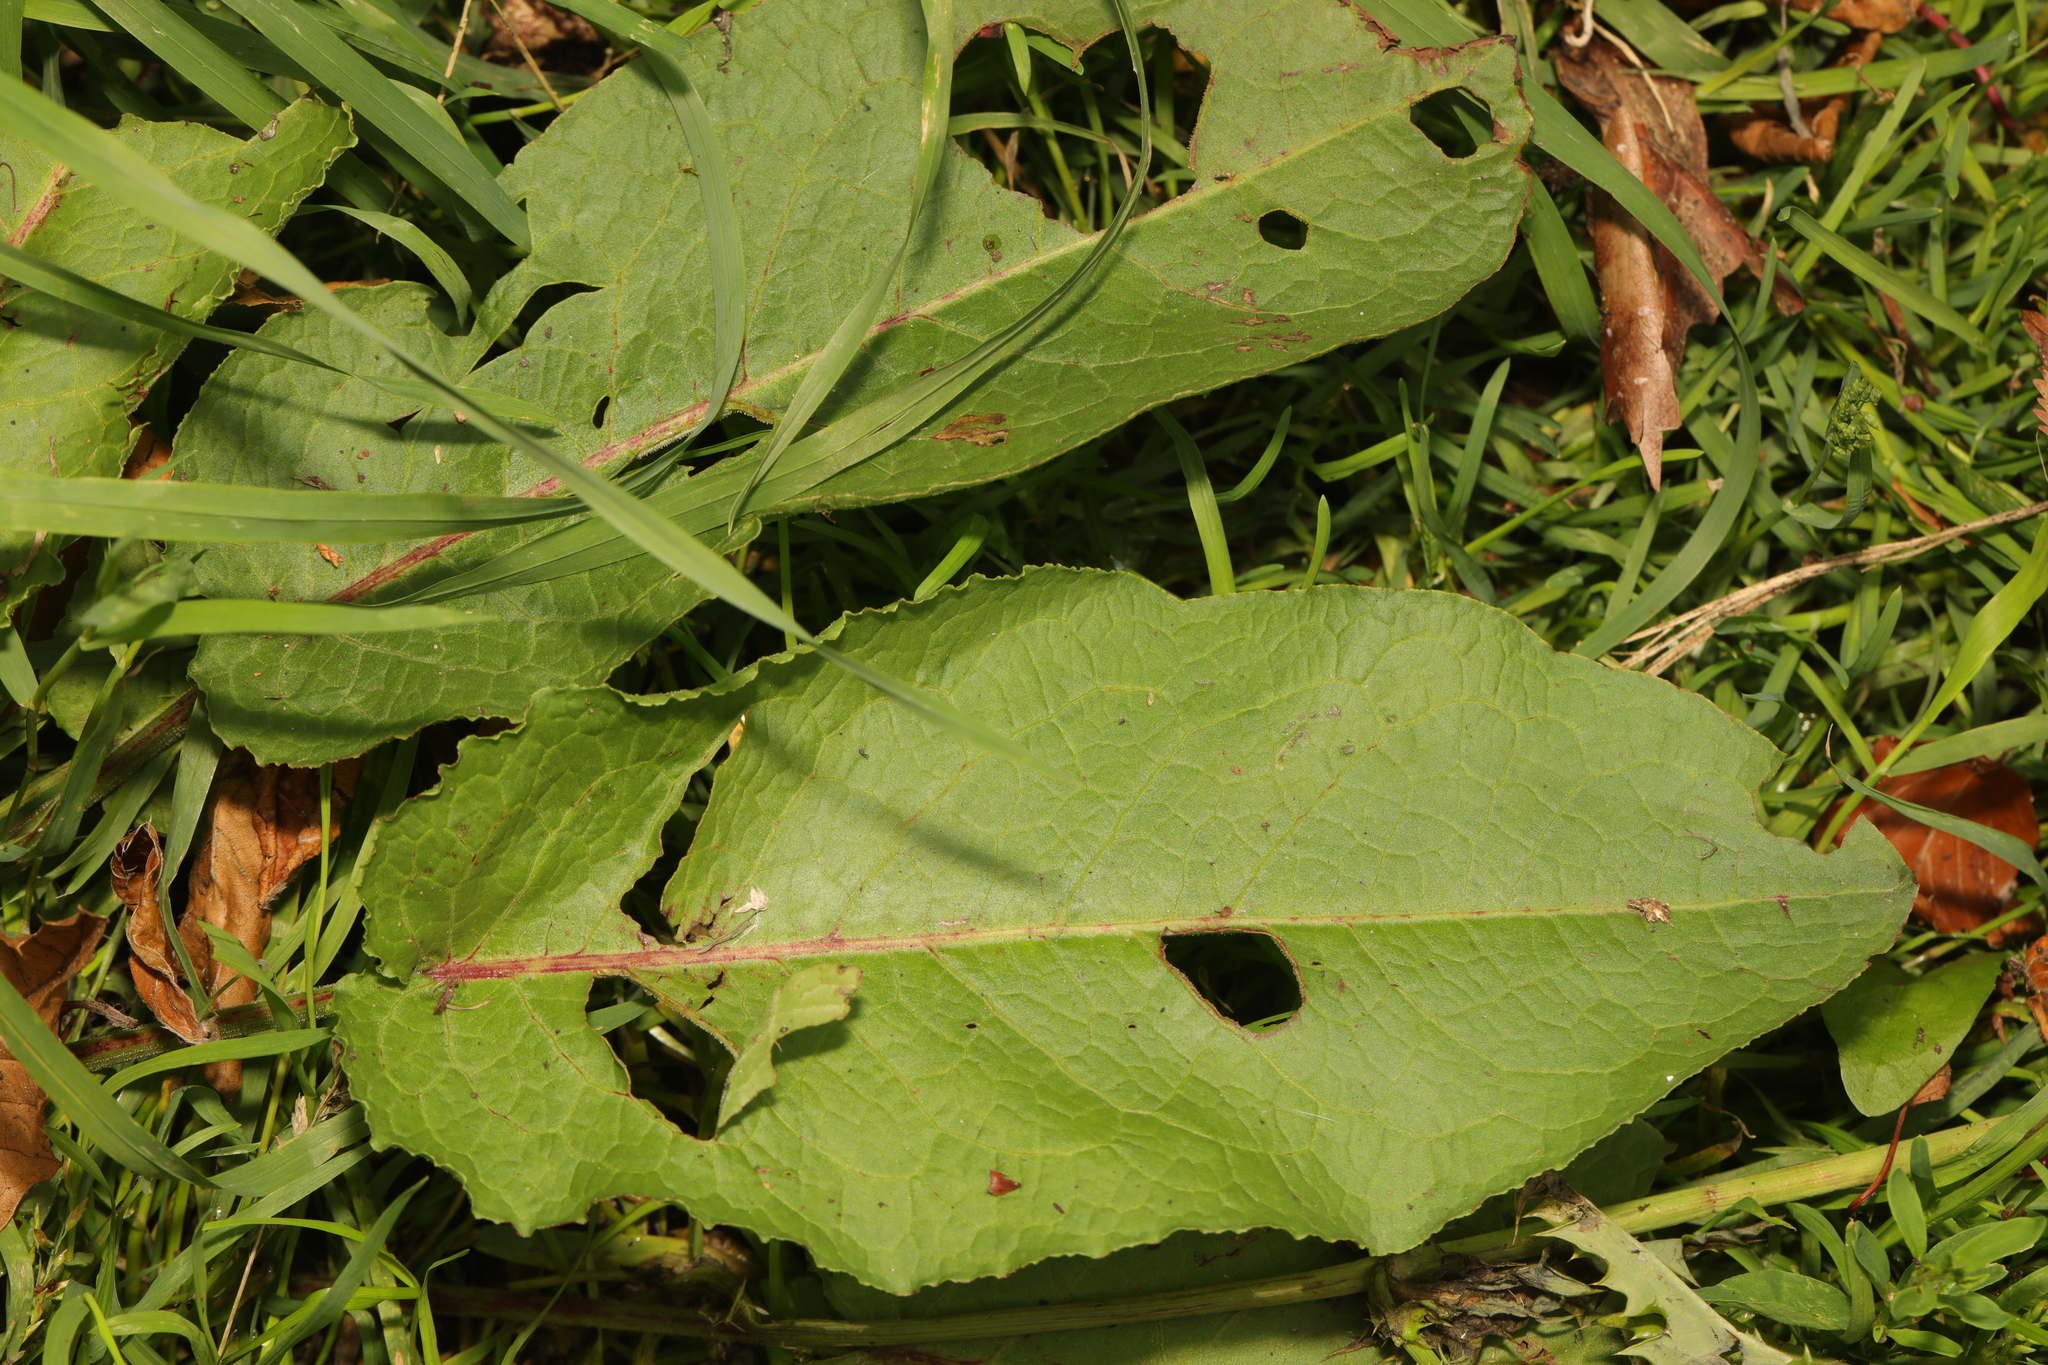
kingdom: Plantae
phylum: Tracheophyta
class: Magnoliopsida
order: Caryophyllales
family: Polygonaceae
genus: Rumex
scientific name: Rumex obtusifolius
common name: Bitter dock
